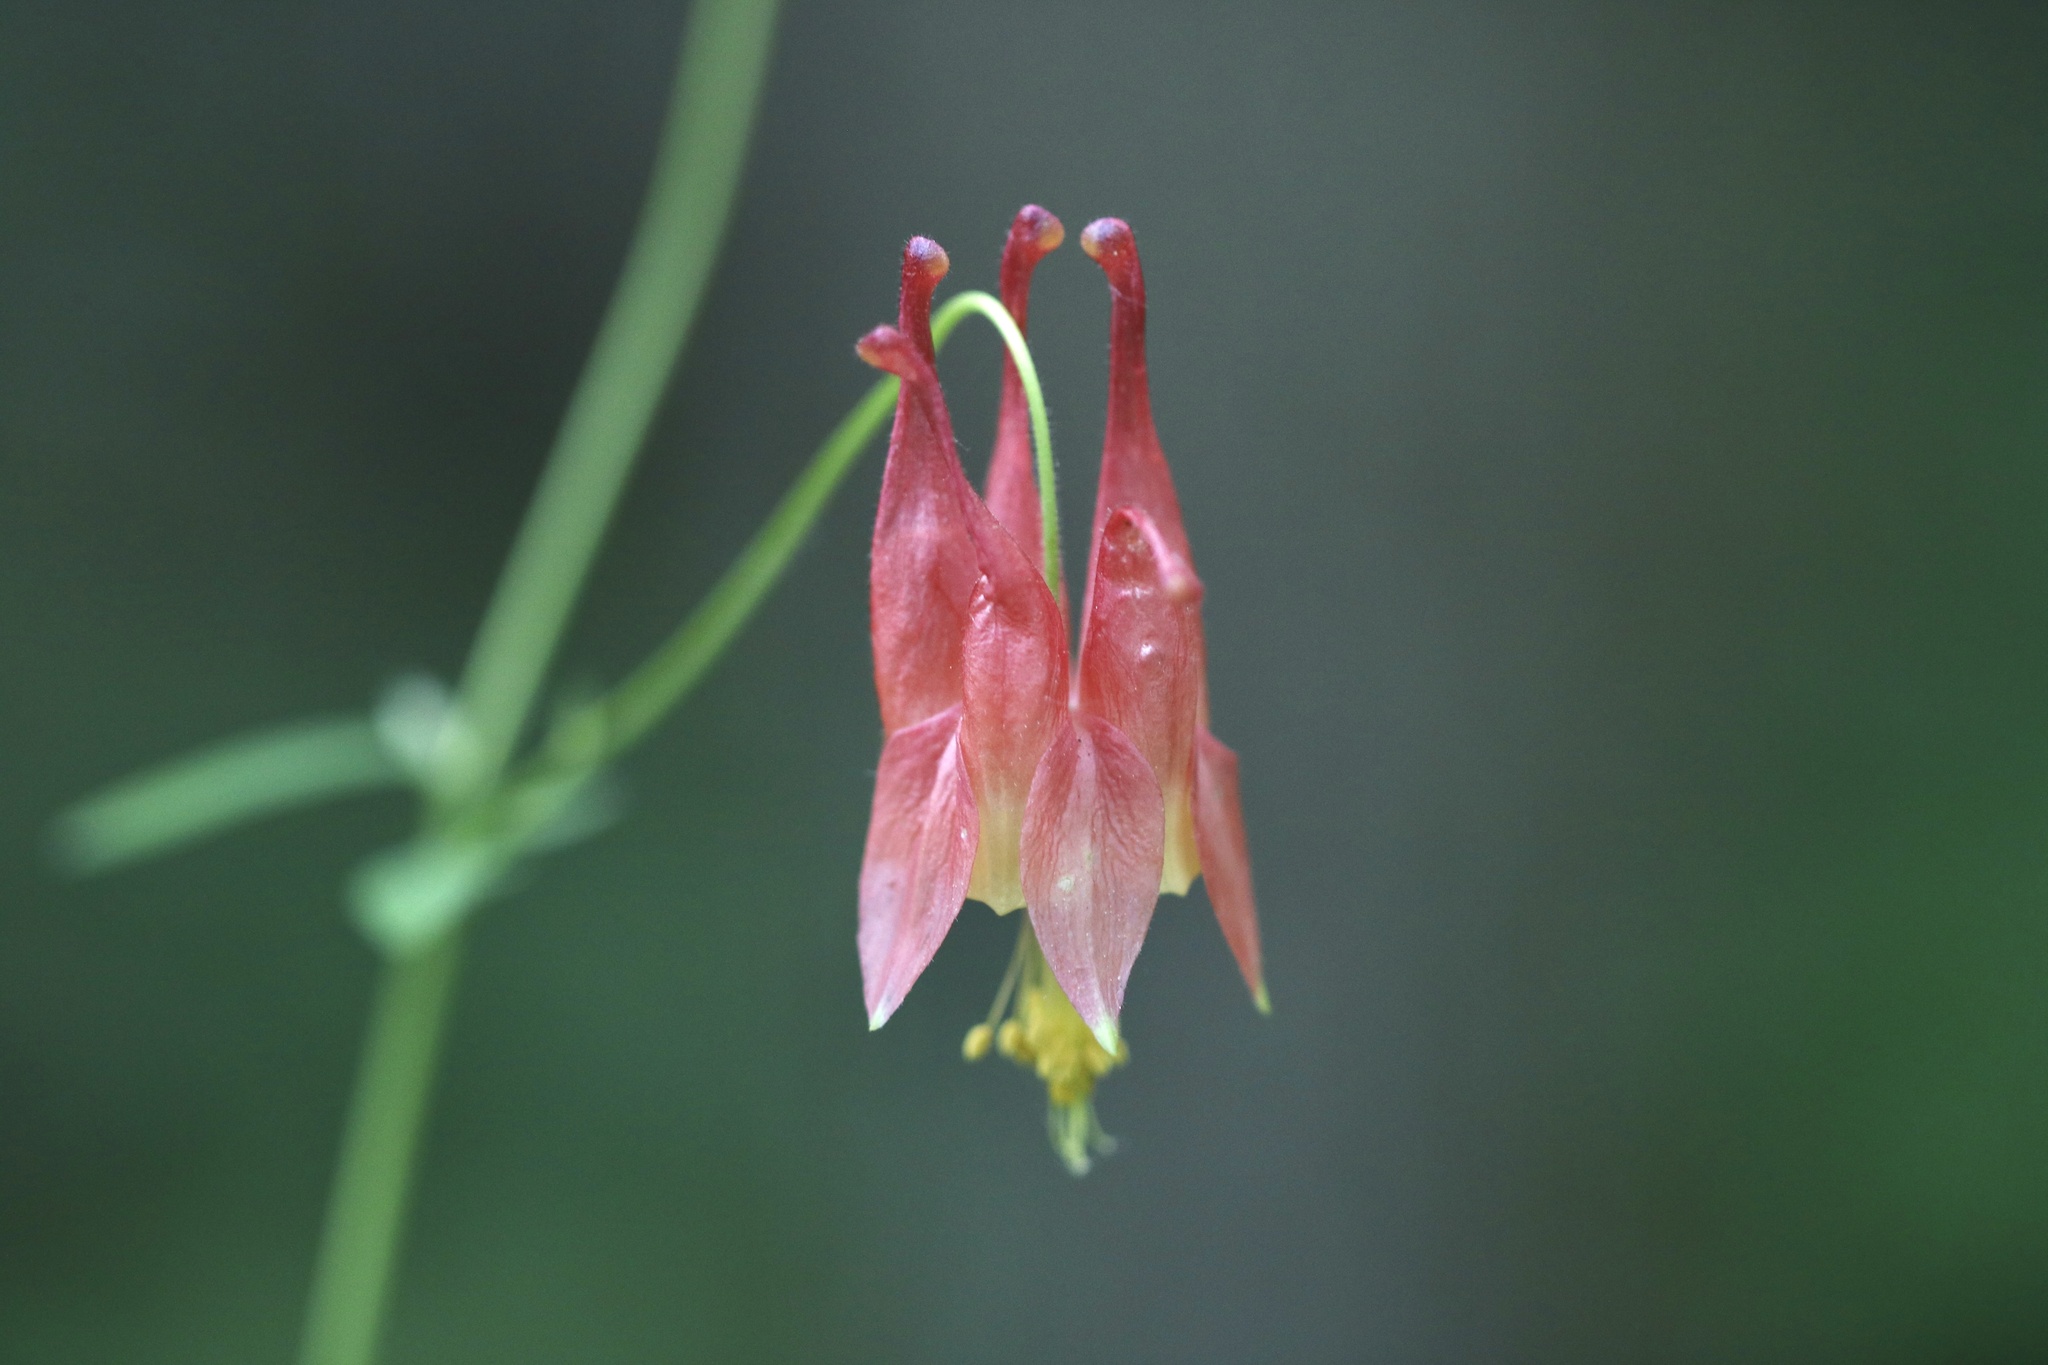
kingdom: Plantae
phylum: Tracheophyta
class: Magnoliopsida
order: Ranunculales
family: Ranunculaceae
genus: Aquilegia
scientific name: Aquilegia canadensis
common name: American columbine
